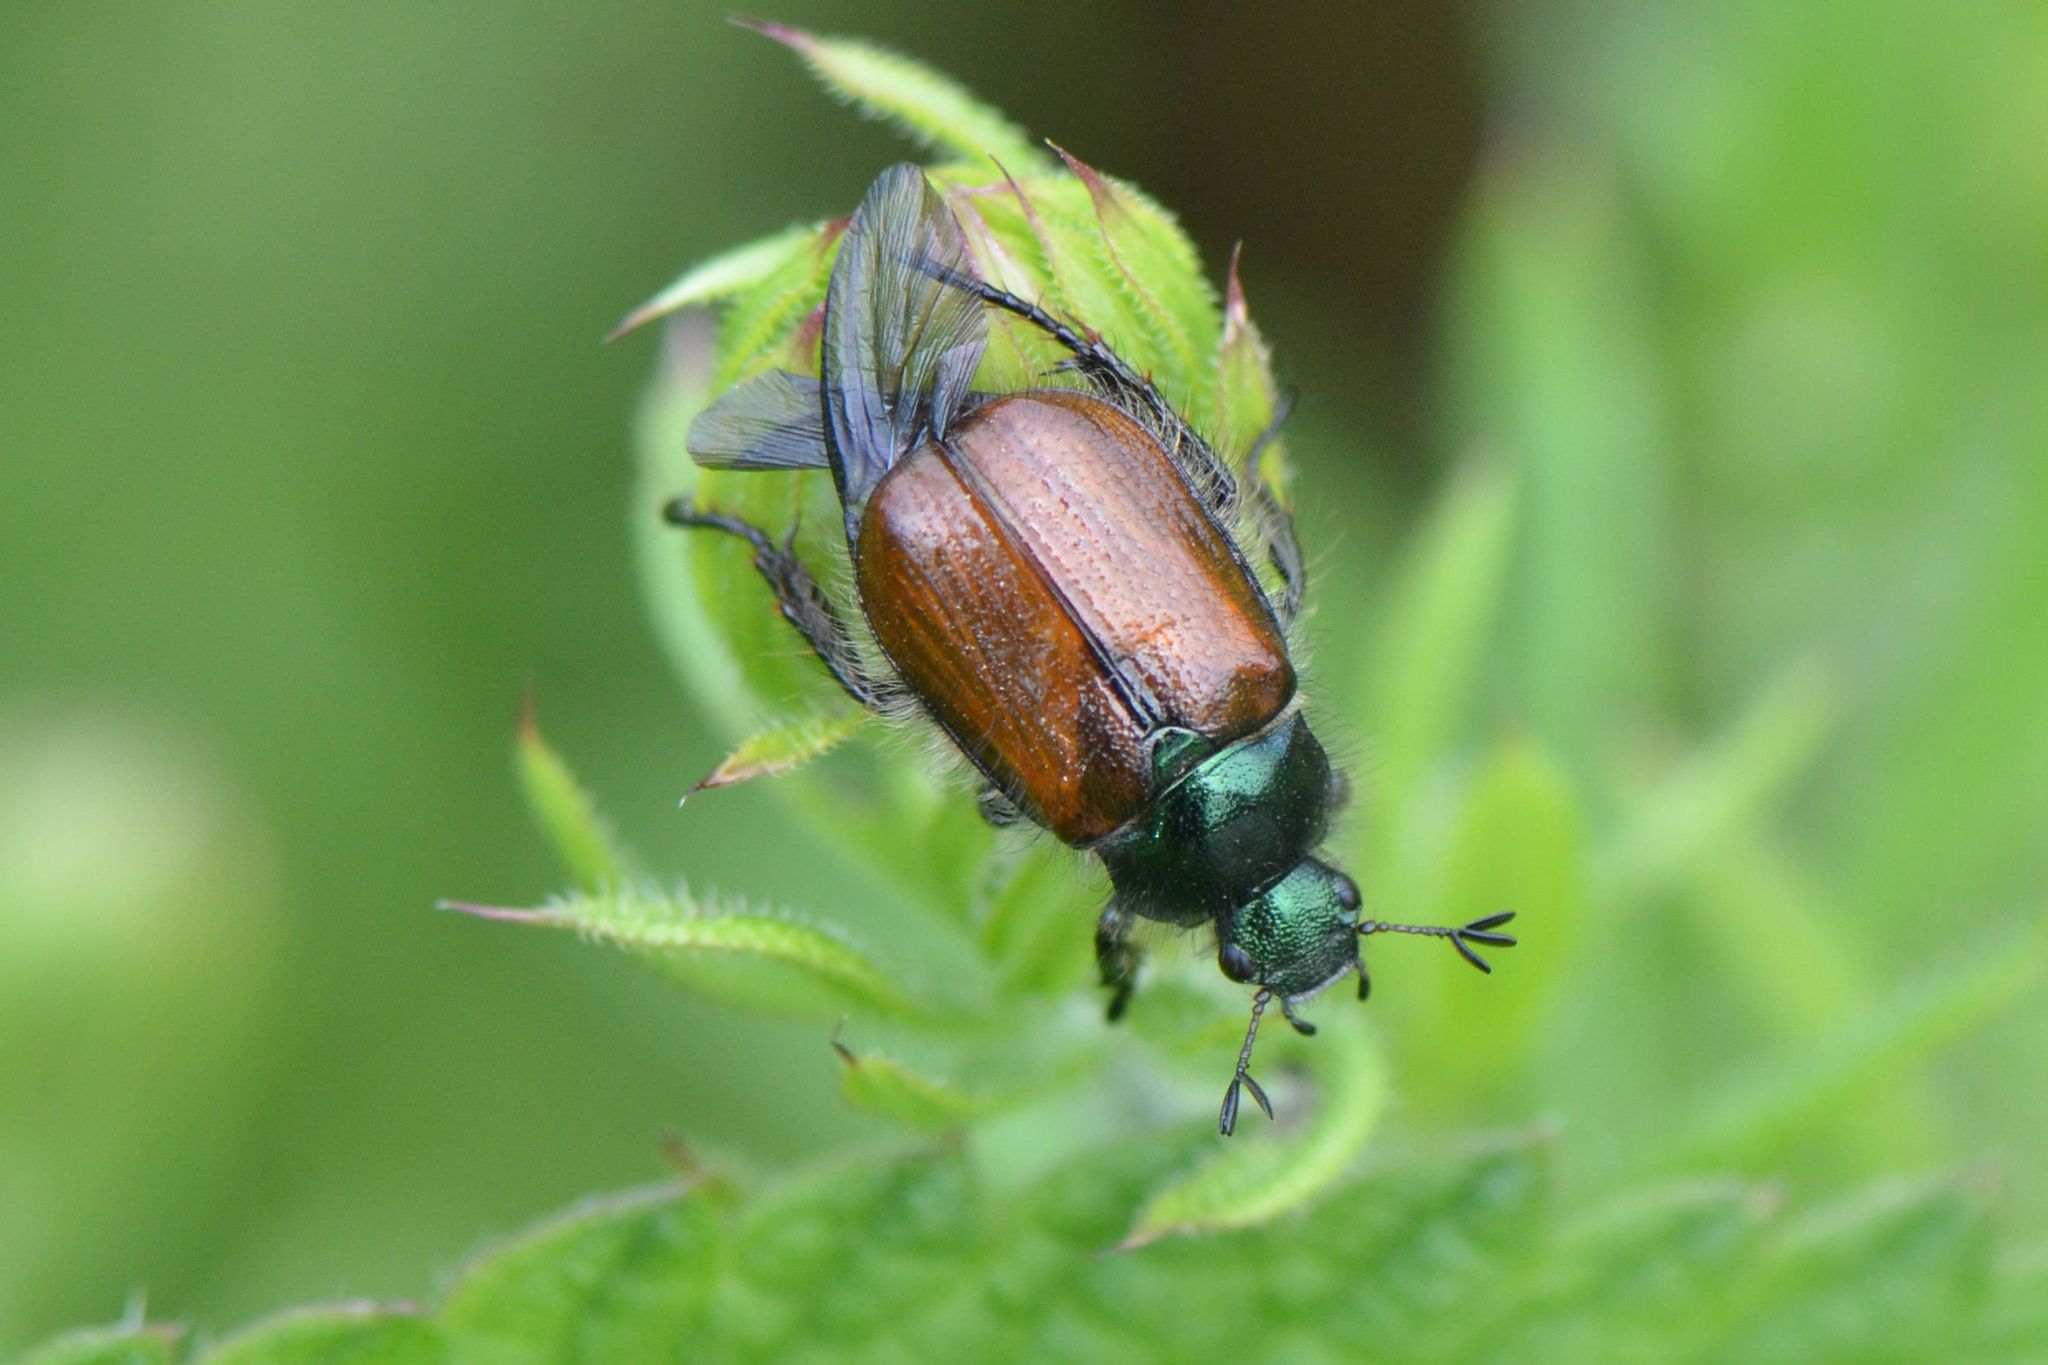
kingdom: Animalia
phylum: Arthropoda
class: Insecta
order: Coleoptera
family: Scarabaeidae
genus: Phyllopertha
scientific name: Phyllopertha horticola
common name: Garden chafer
